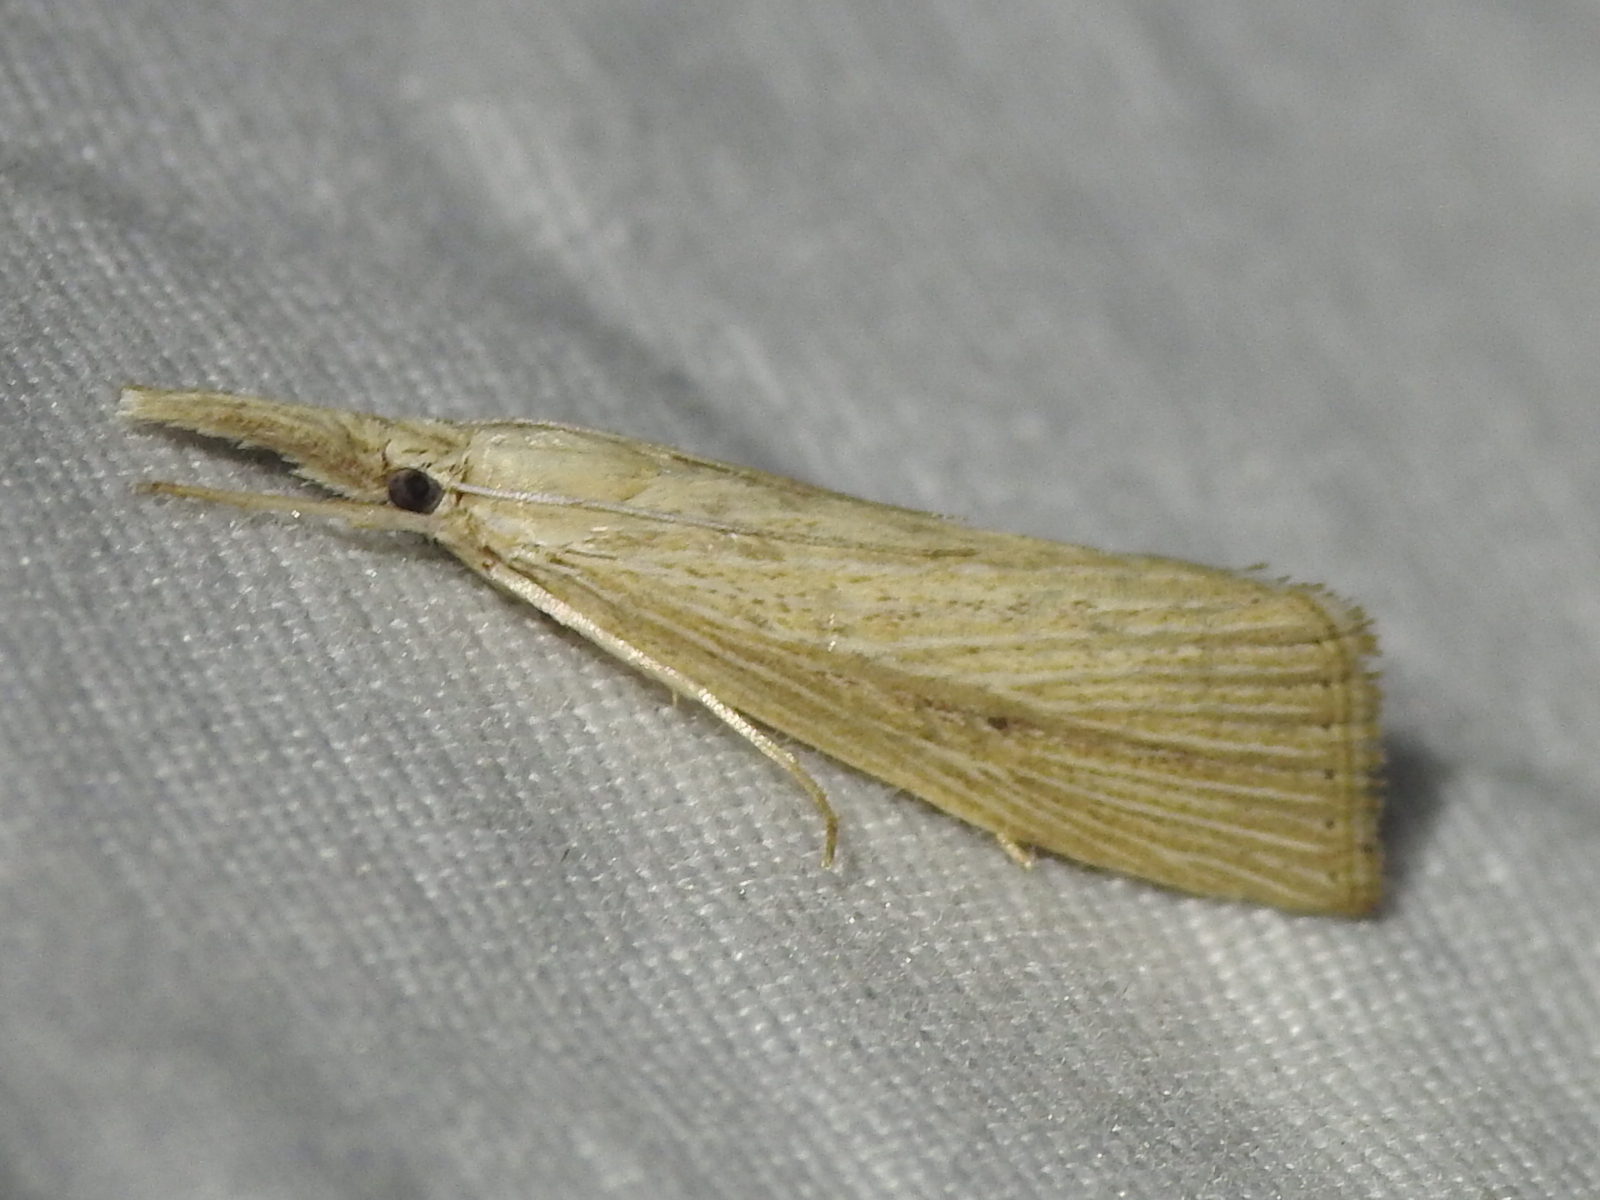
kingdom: Animalia
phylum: Arthropoda
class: Insecta
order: Lepidoptera
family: Crambidae
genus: Eoreuma
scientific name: Eoreuma densellus
